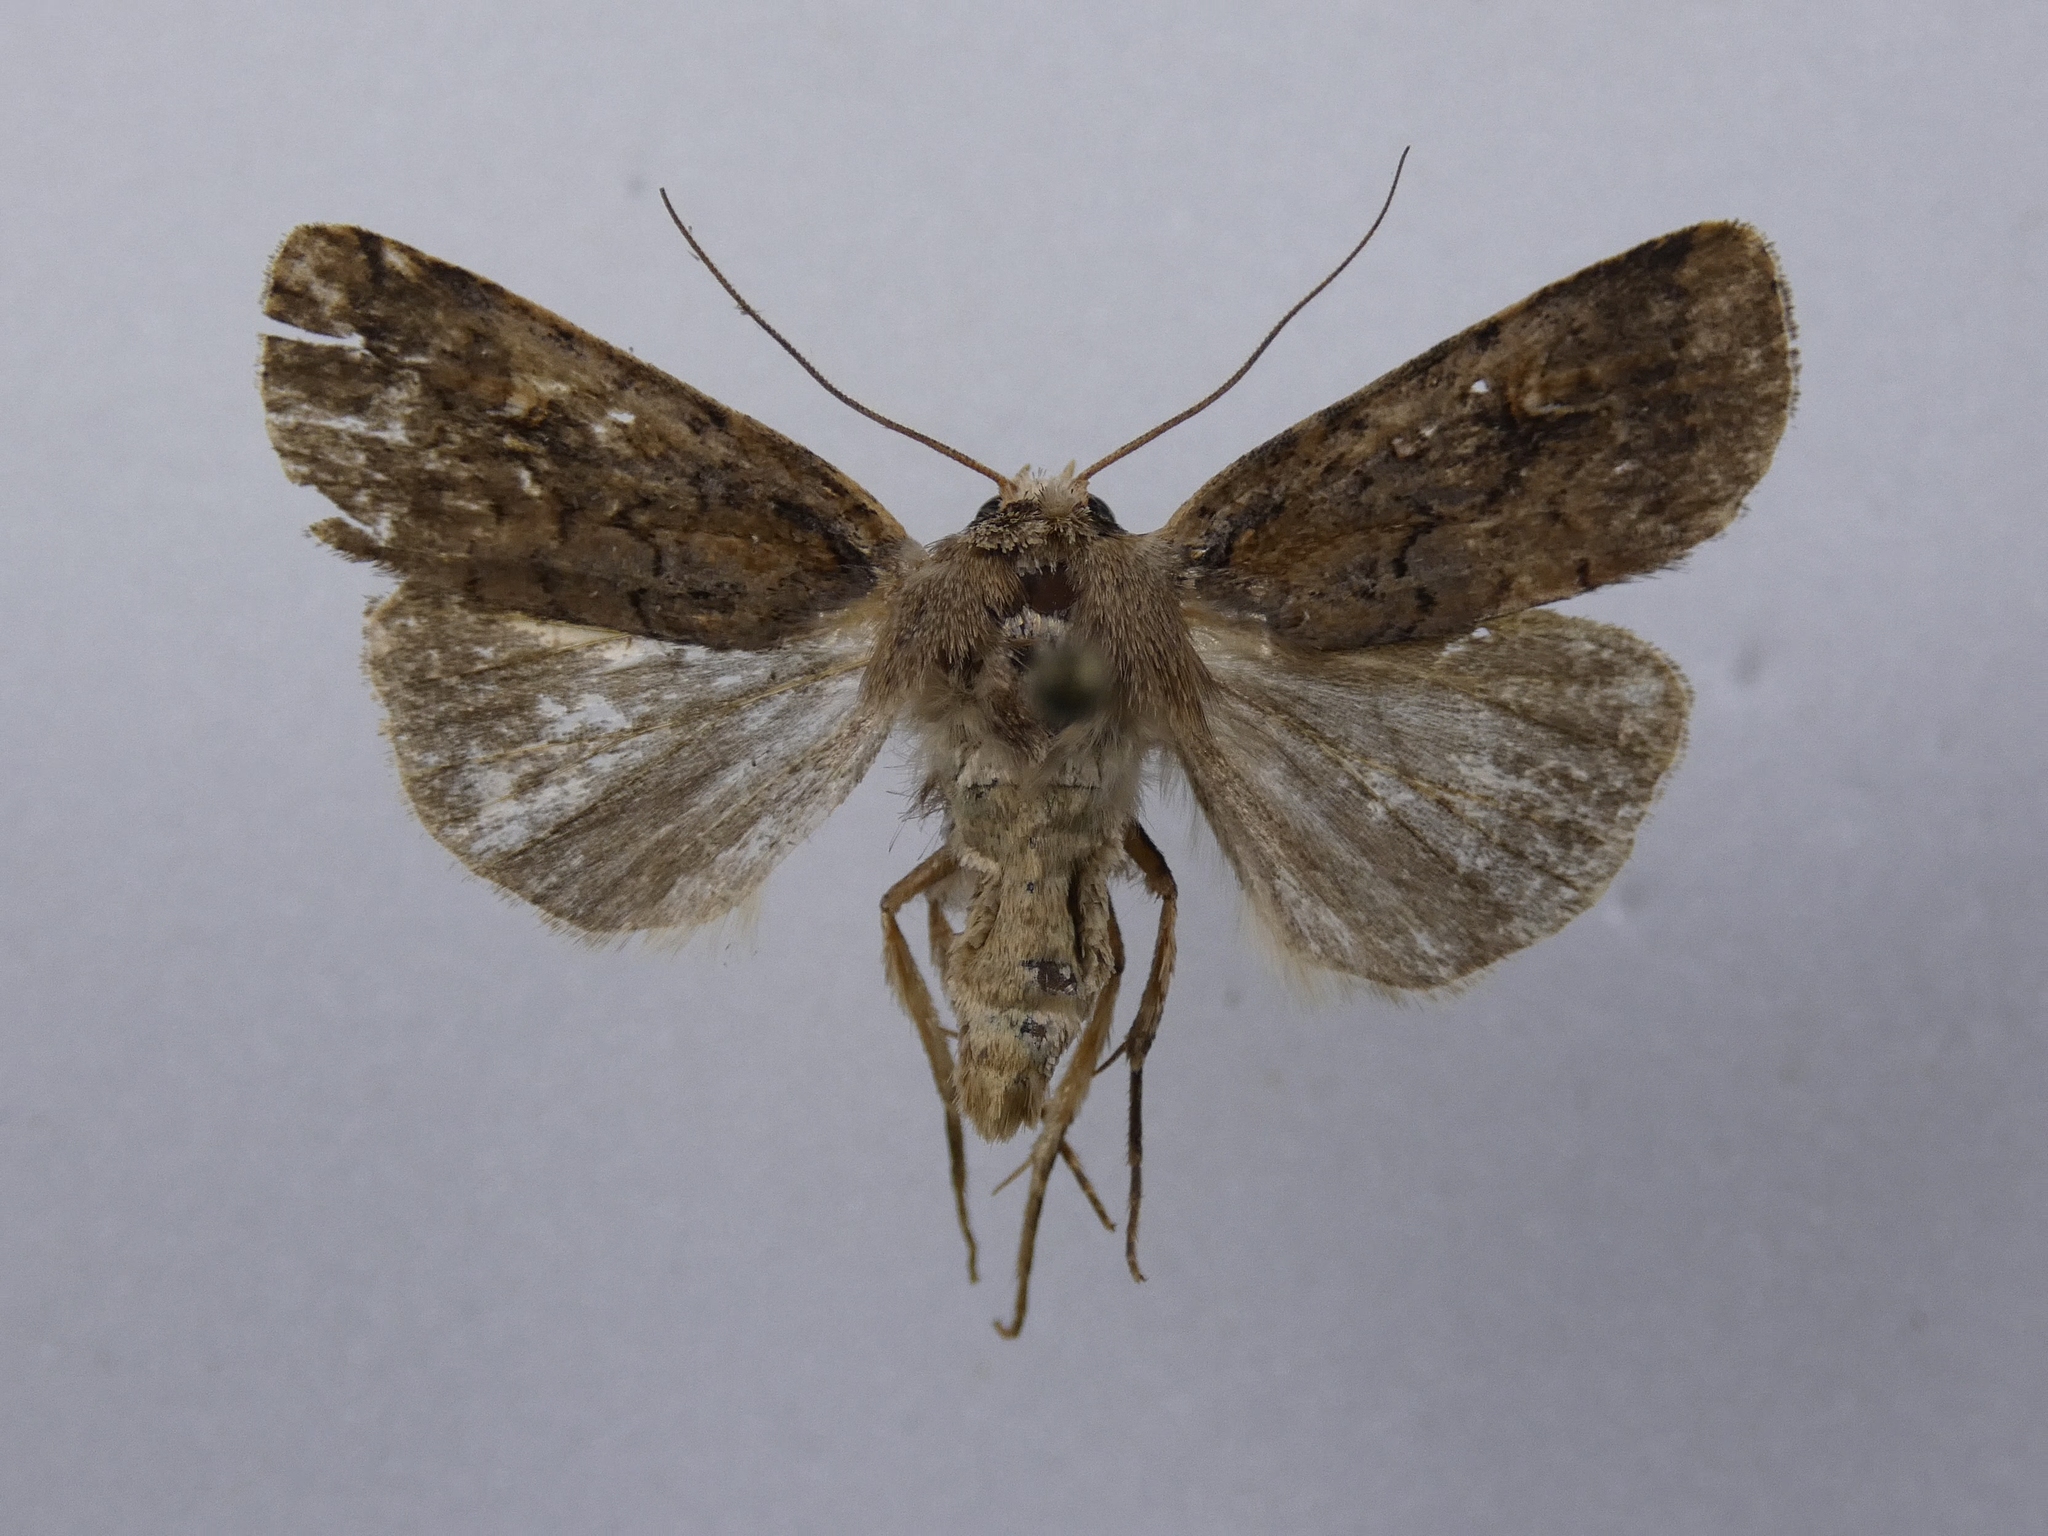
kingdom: Animalia
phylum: Arthropoda
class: Insecta
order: Lepidoptera
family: Noctuidae
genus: Proteuxoa
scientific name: Proteuxoa tetronycha
